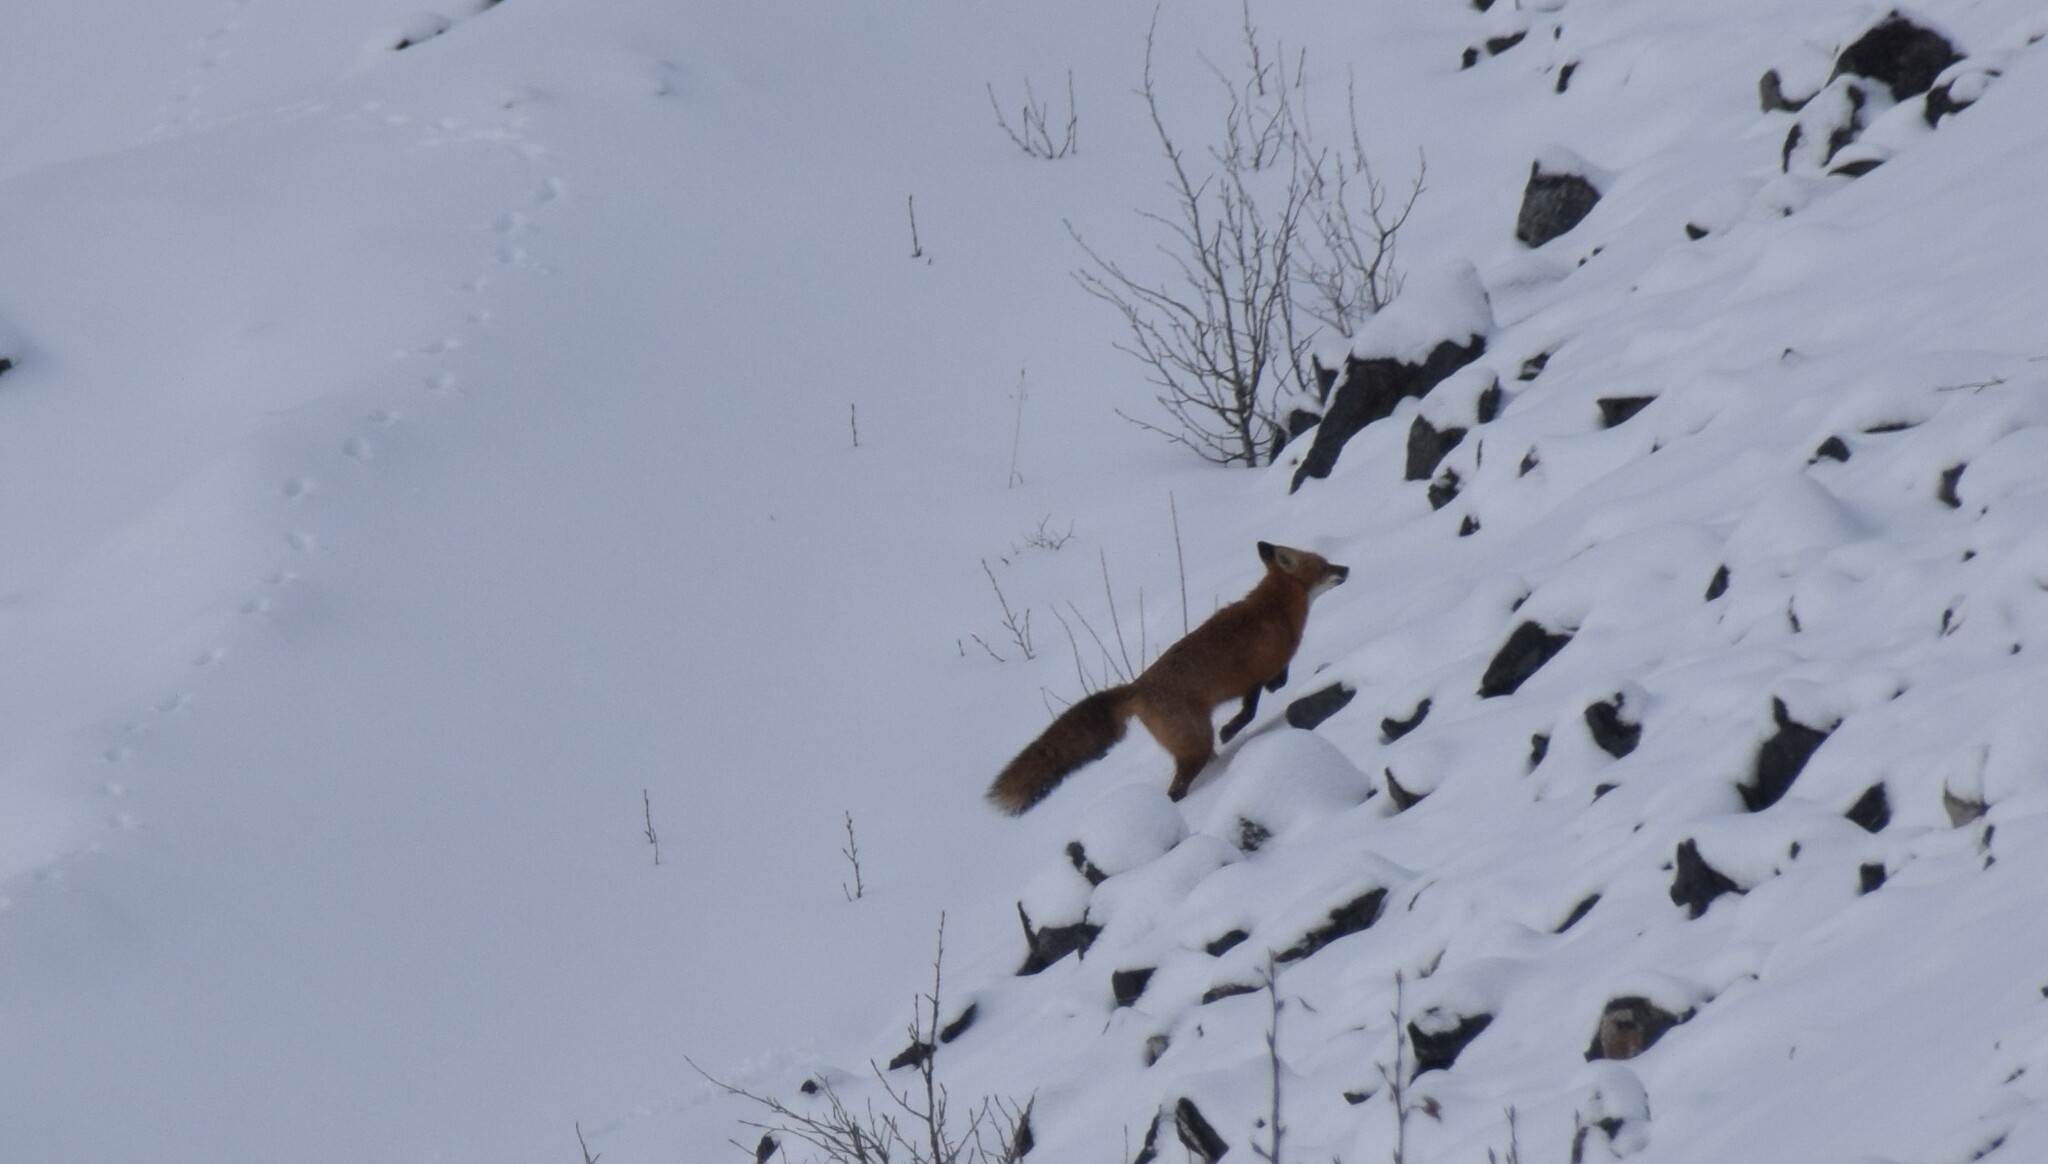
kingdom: Animalia
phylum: Chordata
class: Mammalia
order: Carnivora
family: Canidae
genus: Vulpes
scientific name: Vulpes vulpes
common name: Red fox
